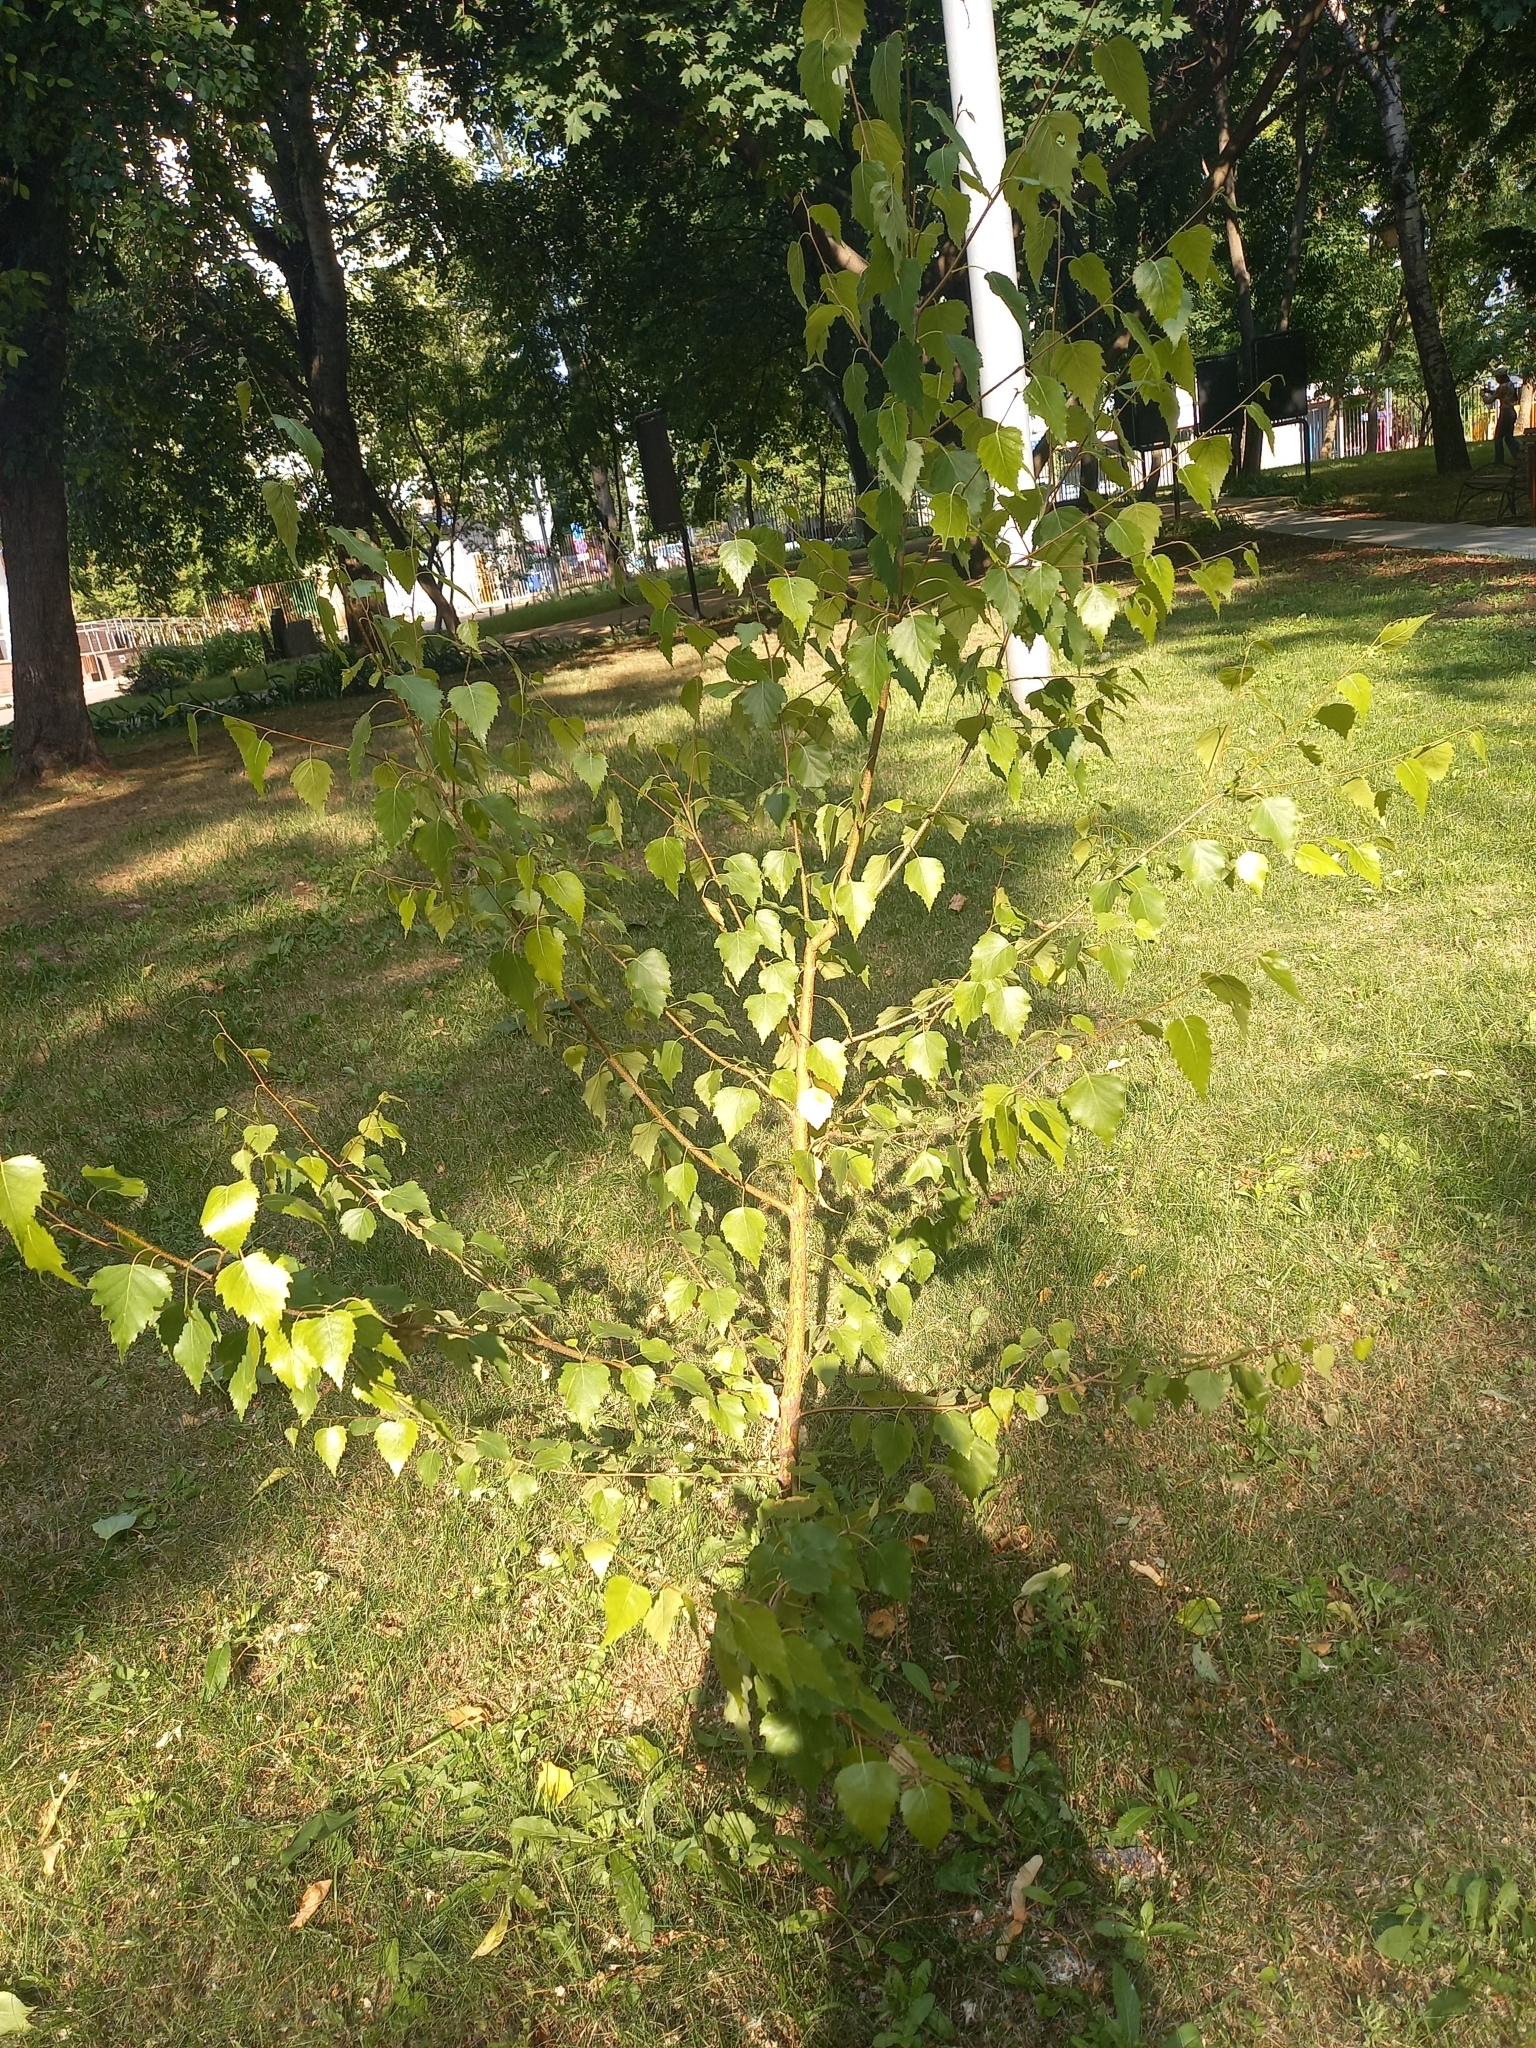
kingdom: Plantae
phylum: Tracheophyta
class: Magnoliopsida
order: Fagales
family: Betulaceae
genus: Betula
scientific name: Betula pendula
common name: Silver birch
